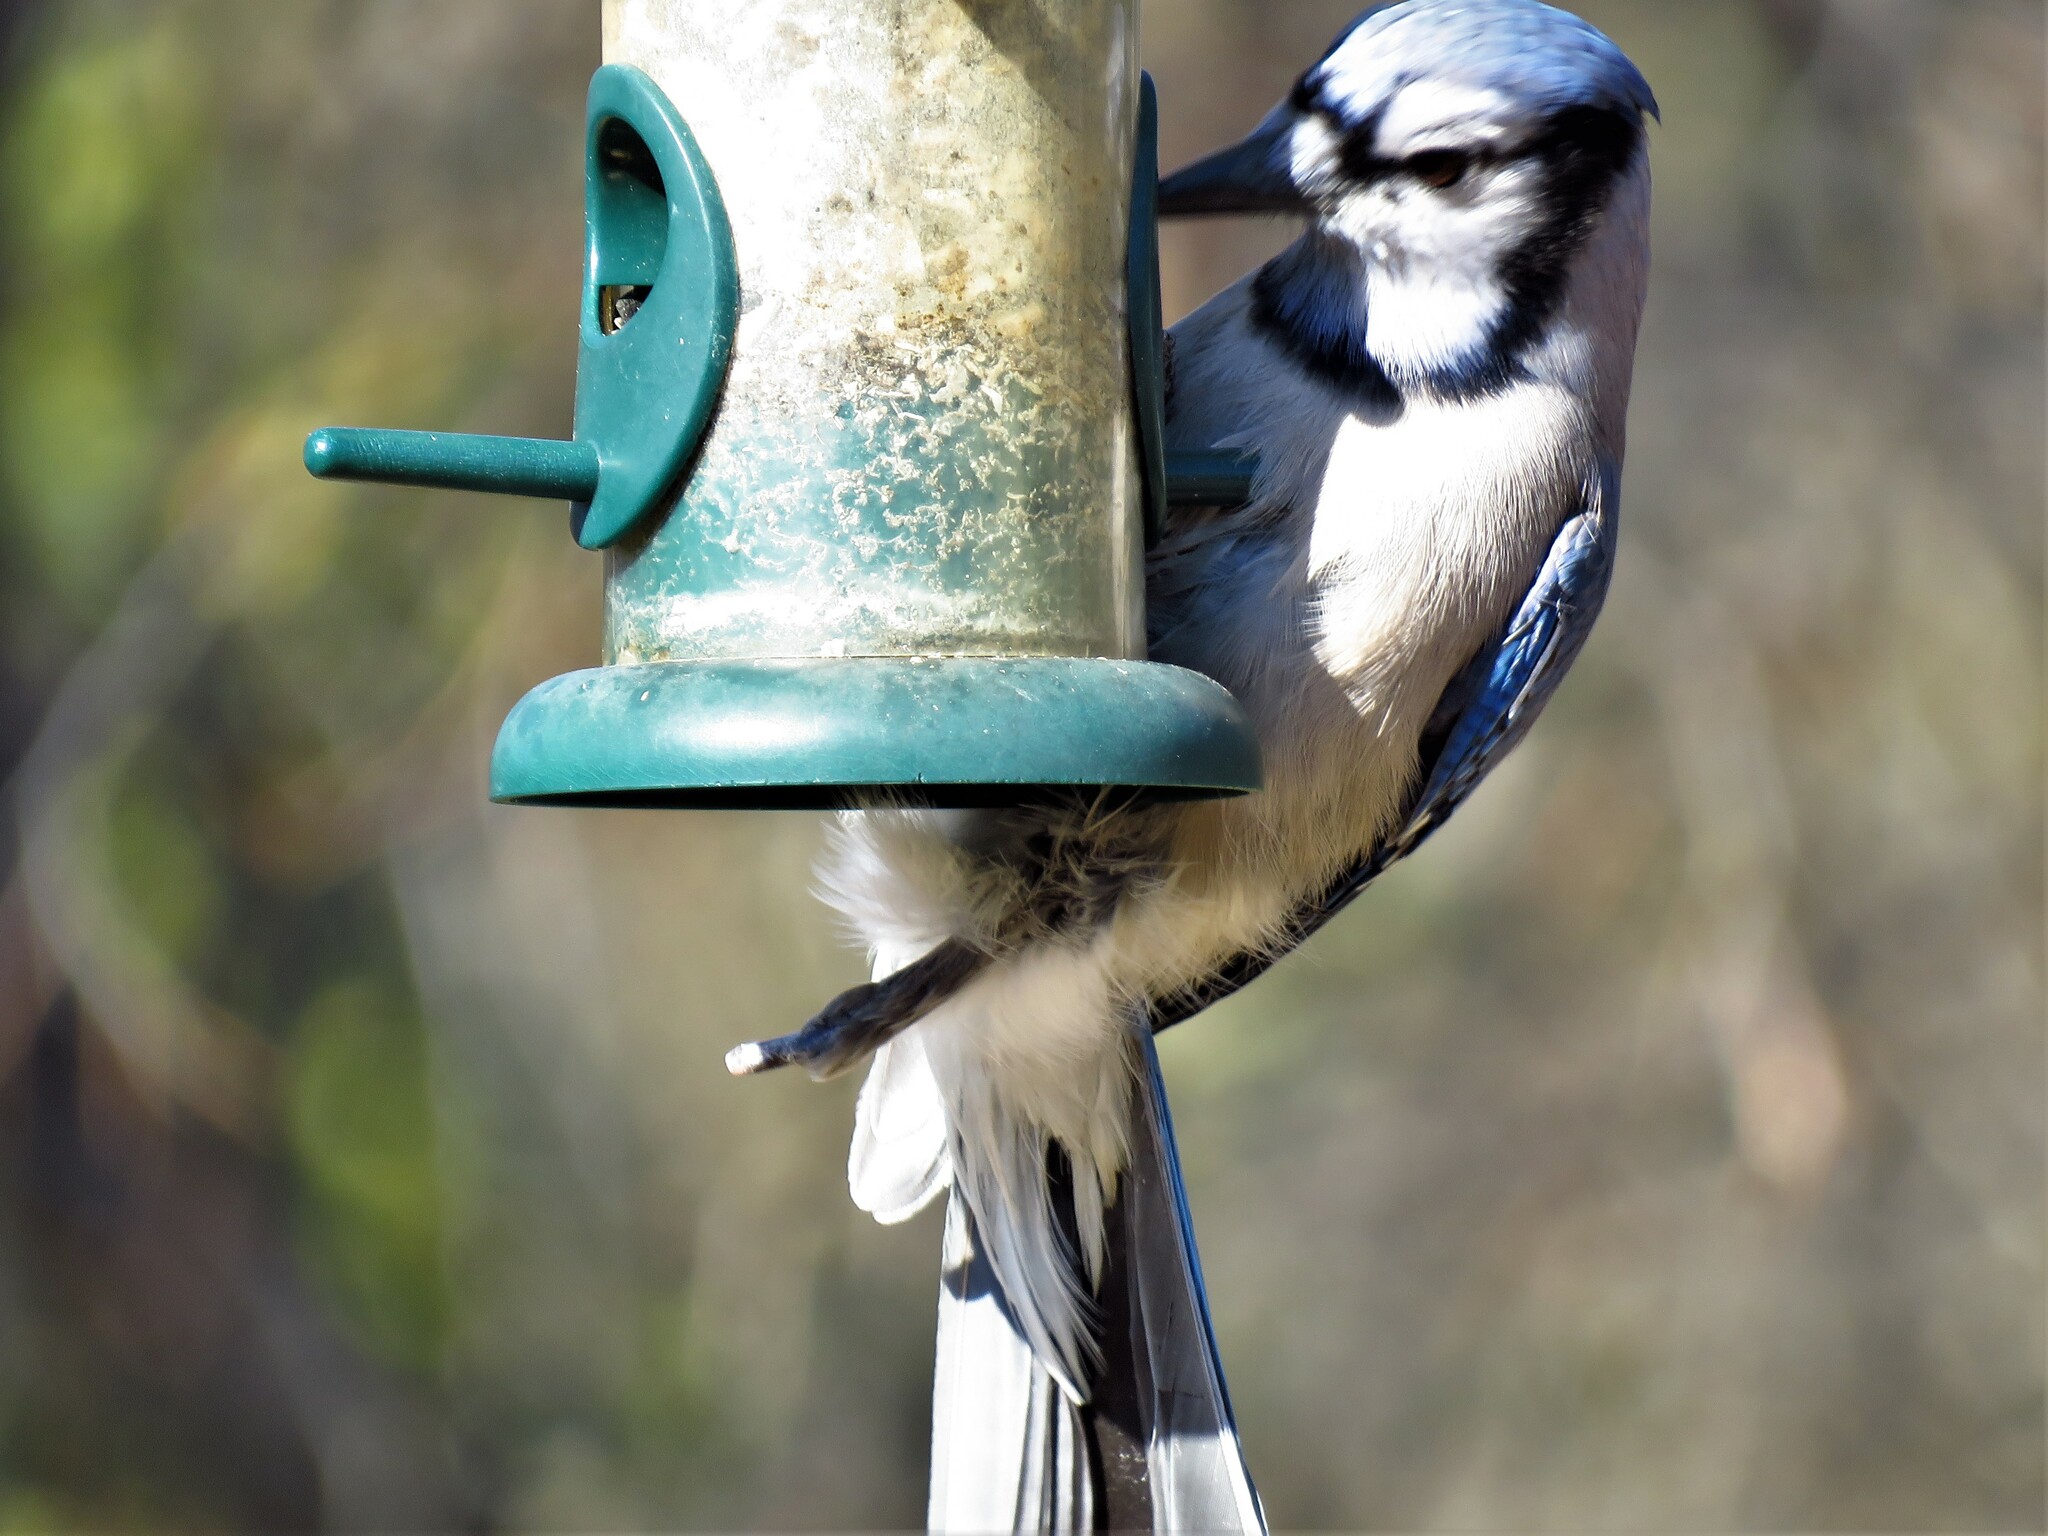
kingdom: Animalia
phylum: Chordata
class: Aves
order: Passeriformes
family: Corvidae
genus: Cyanocitta
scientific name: Cyanocitta cristata
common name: Blue jay
